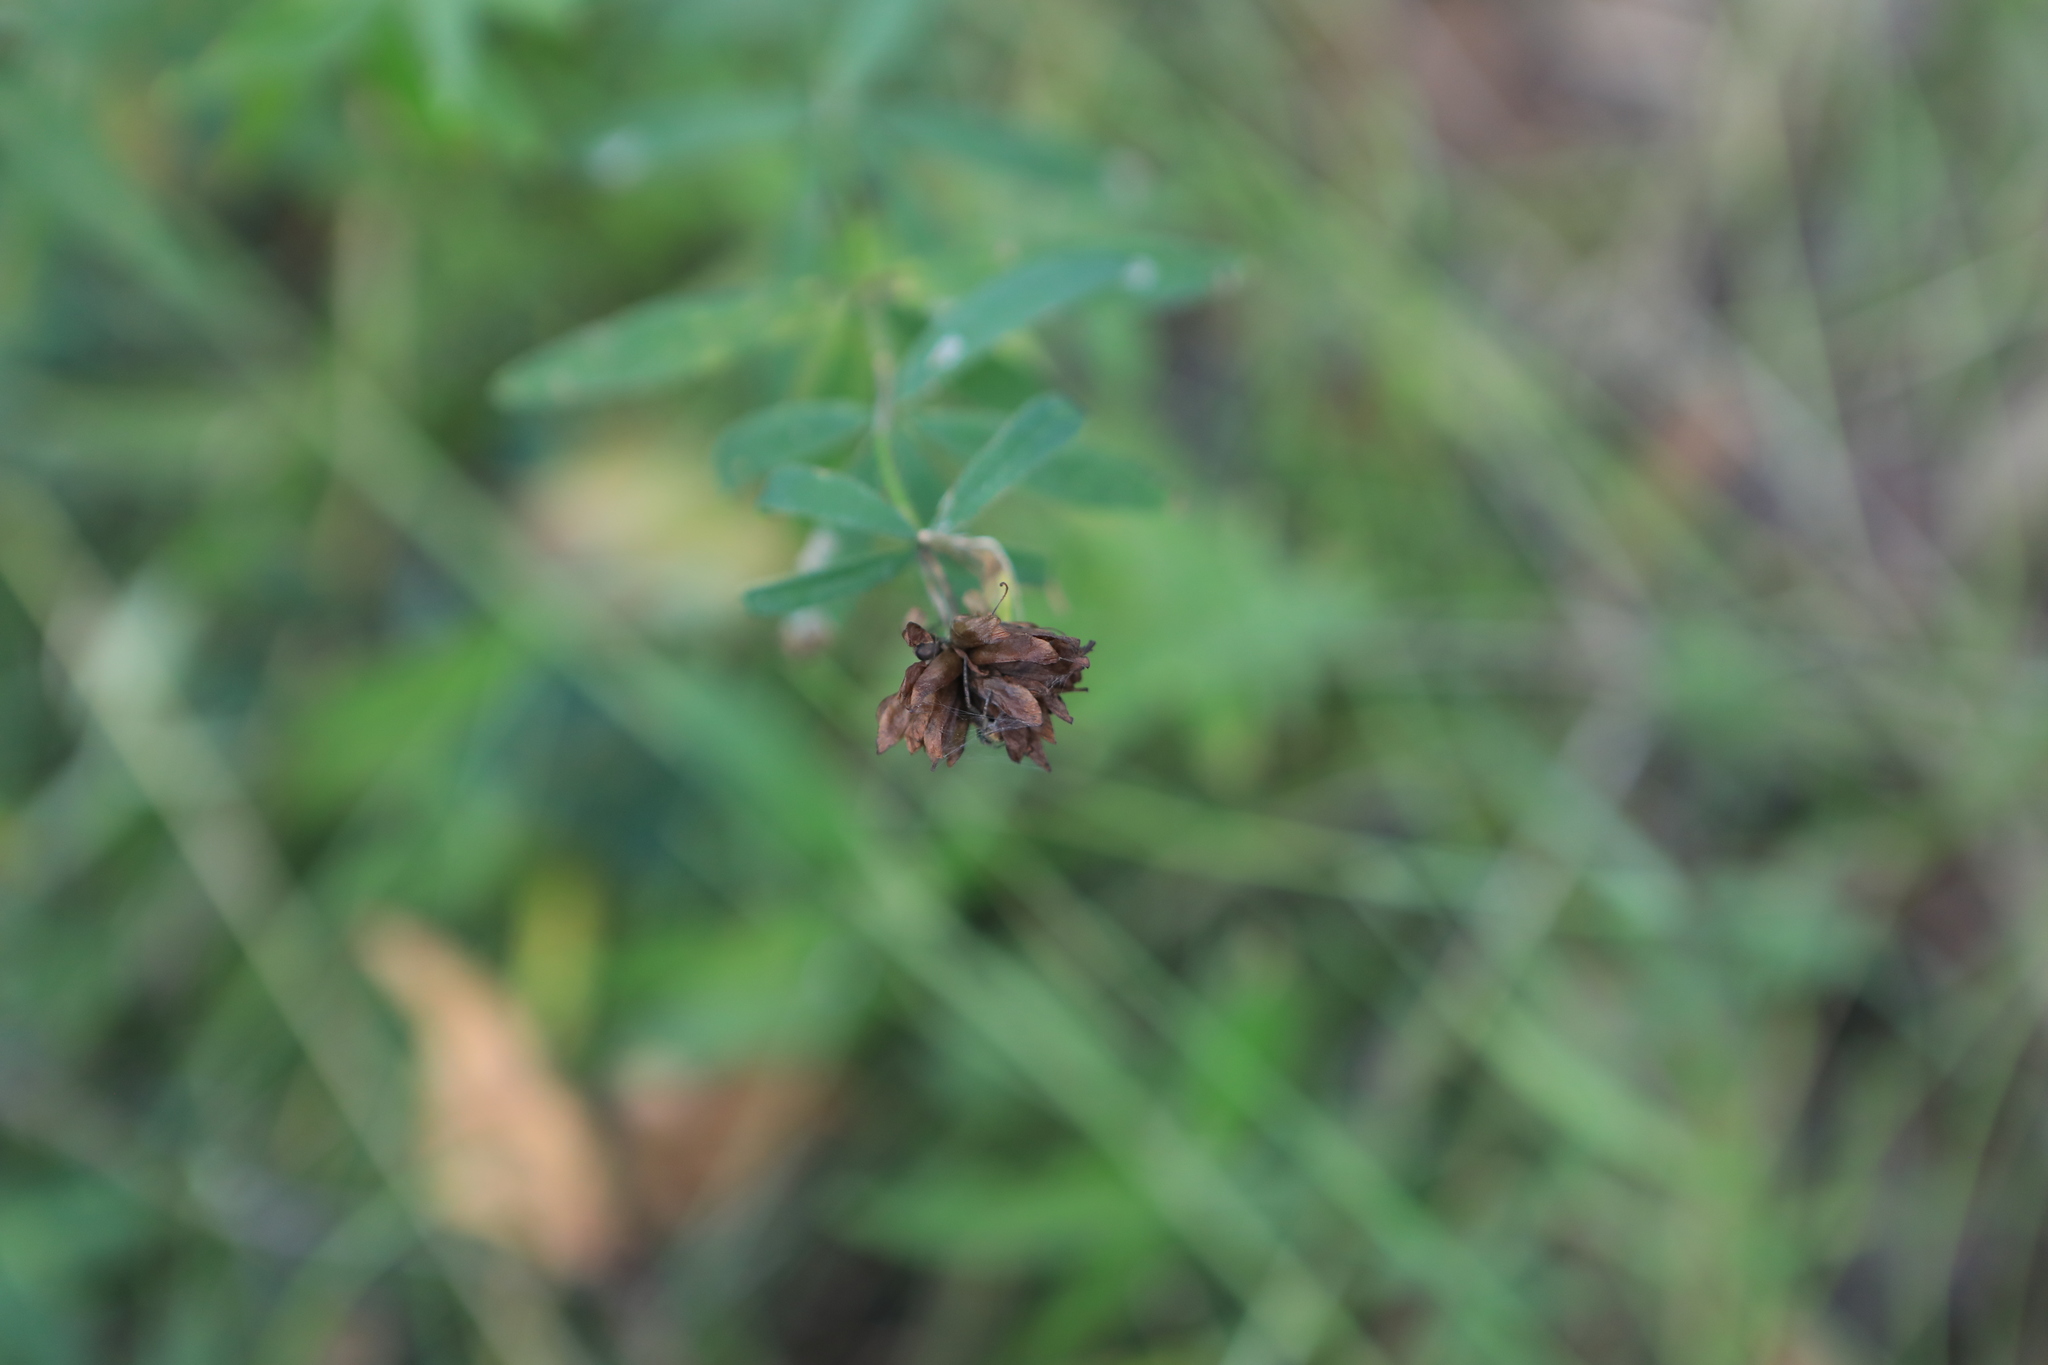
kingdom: Plantae
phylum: Tracheophyta
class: Magnoliopsida
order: Fabales
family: Fabaceae
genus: Trifolium
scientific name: Trifolium lupinaster
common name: Lupine clover
